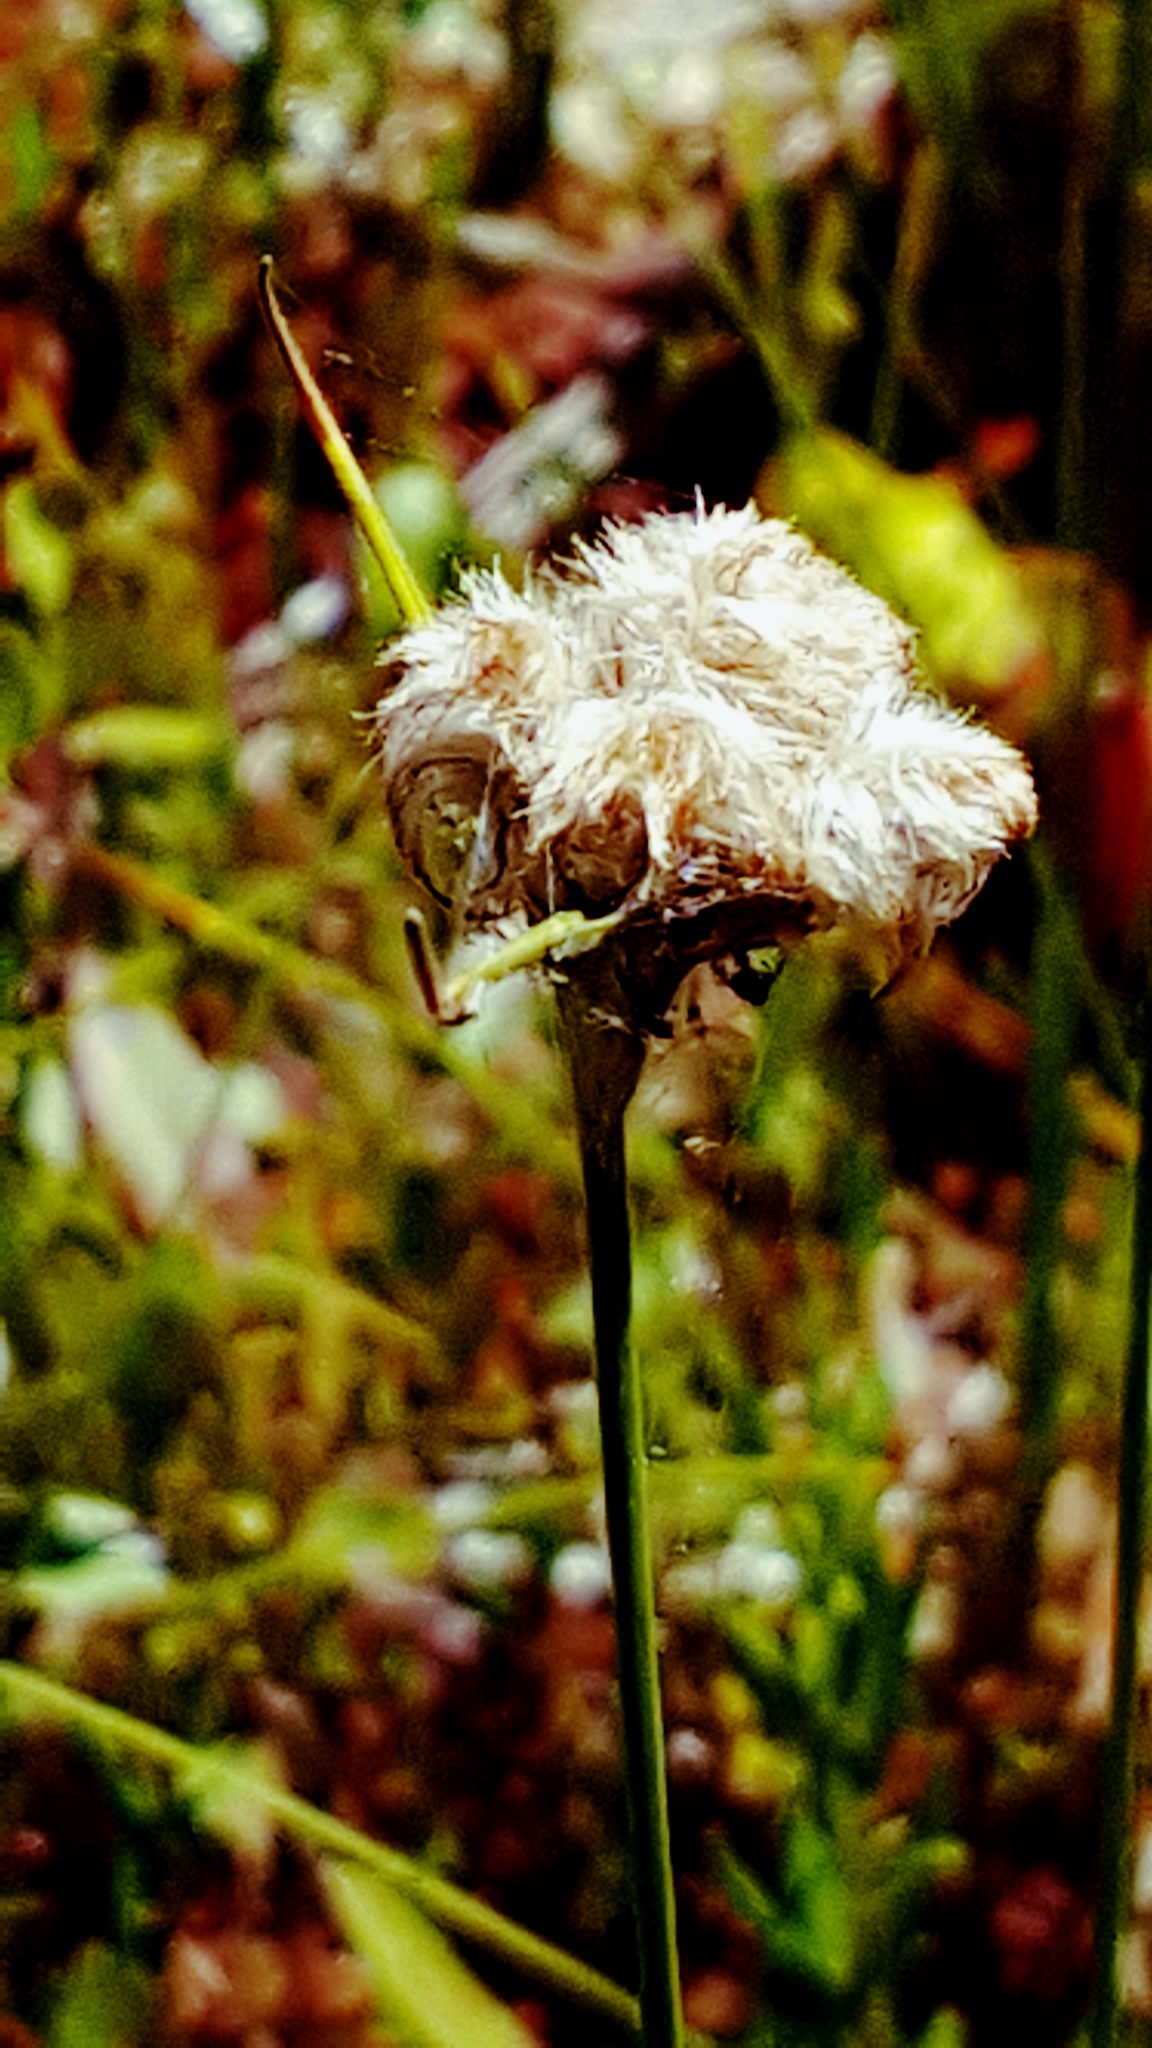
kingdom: Plantae
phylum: Tracheophyta
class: Liliopsida
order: Poales
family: Cyperaceae
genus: Eriophorum
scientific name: Eriophorum virginicum
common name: Tawny cottongrass
